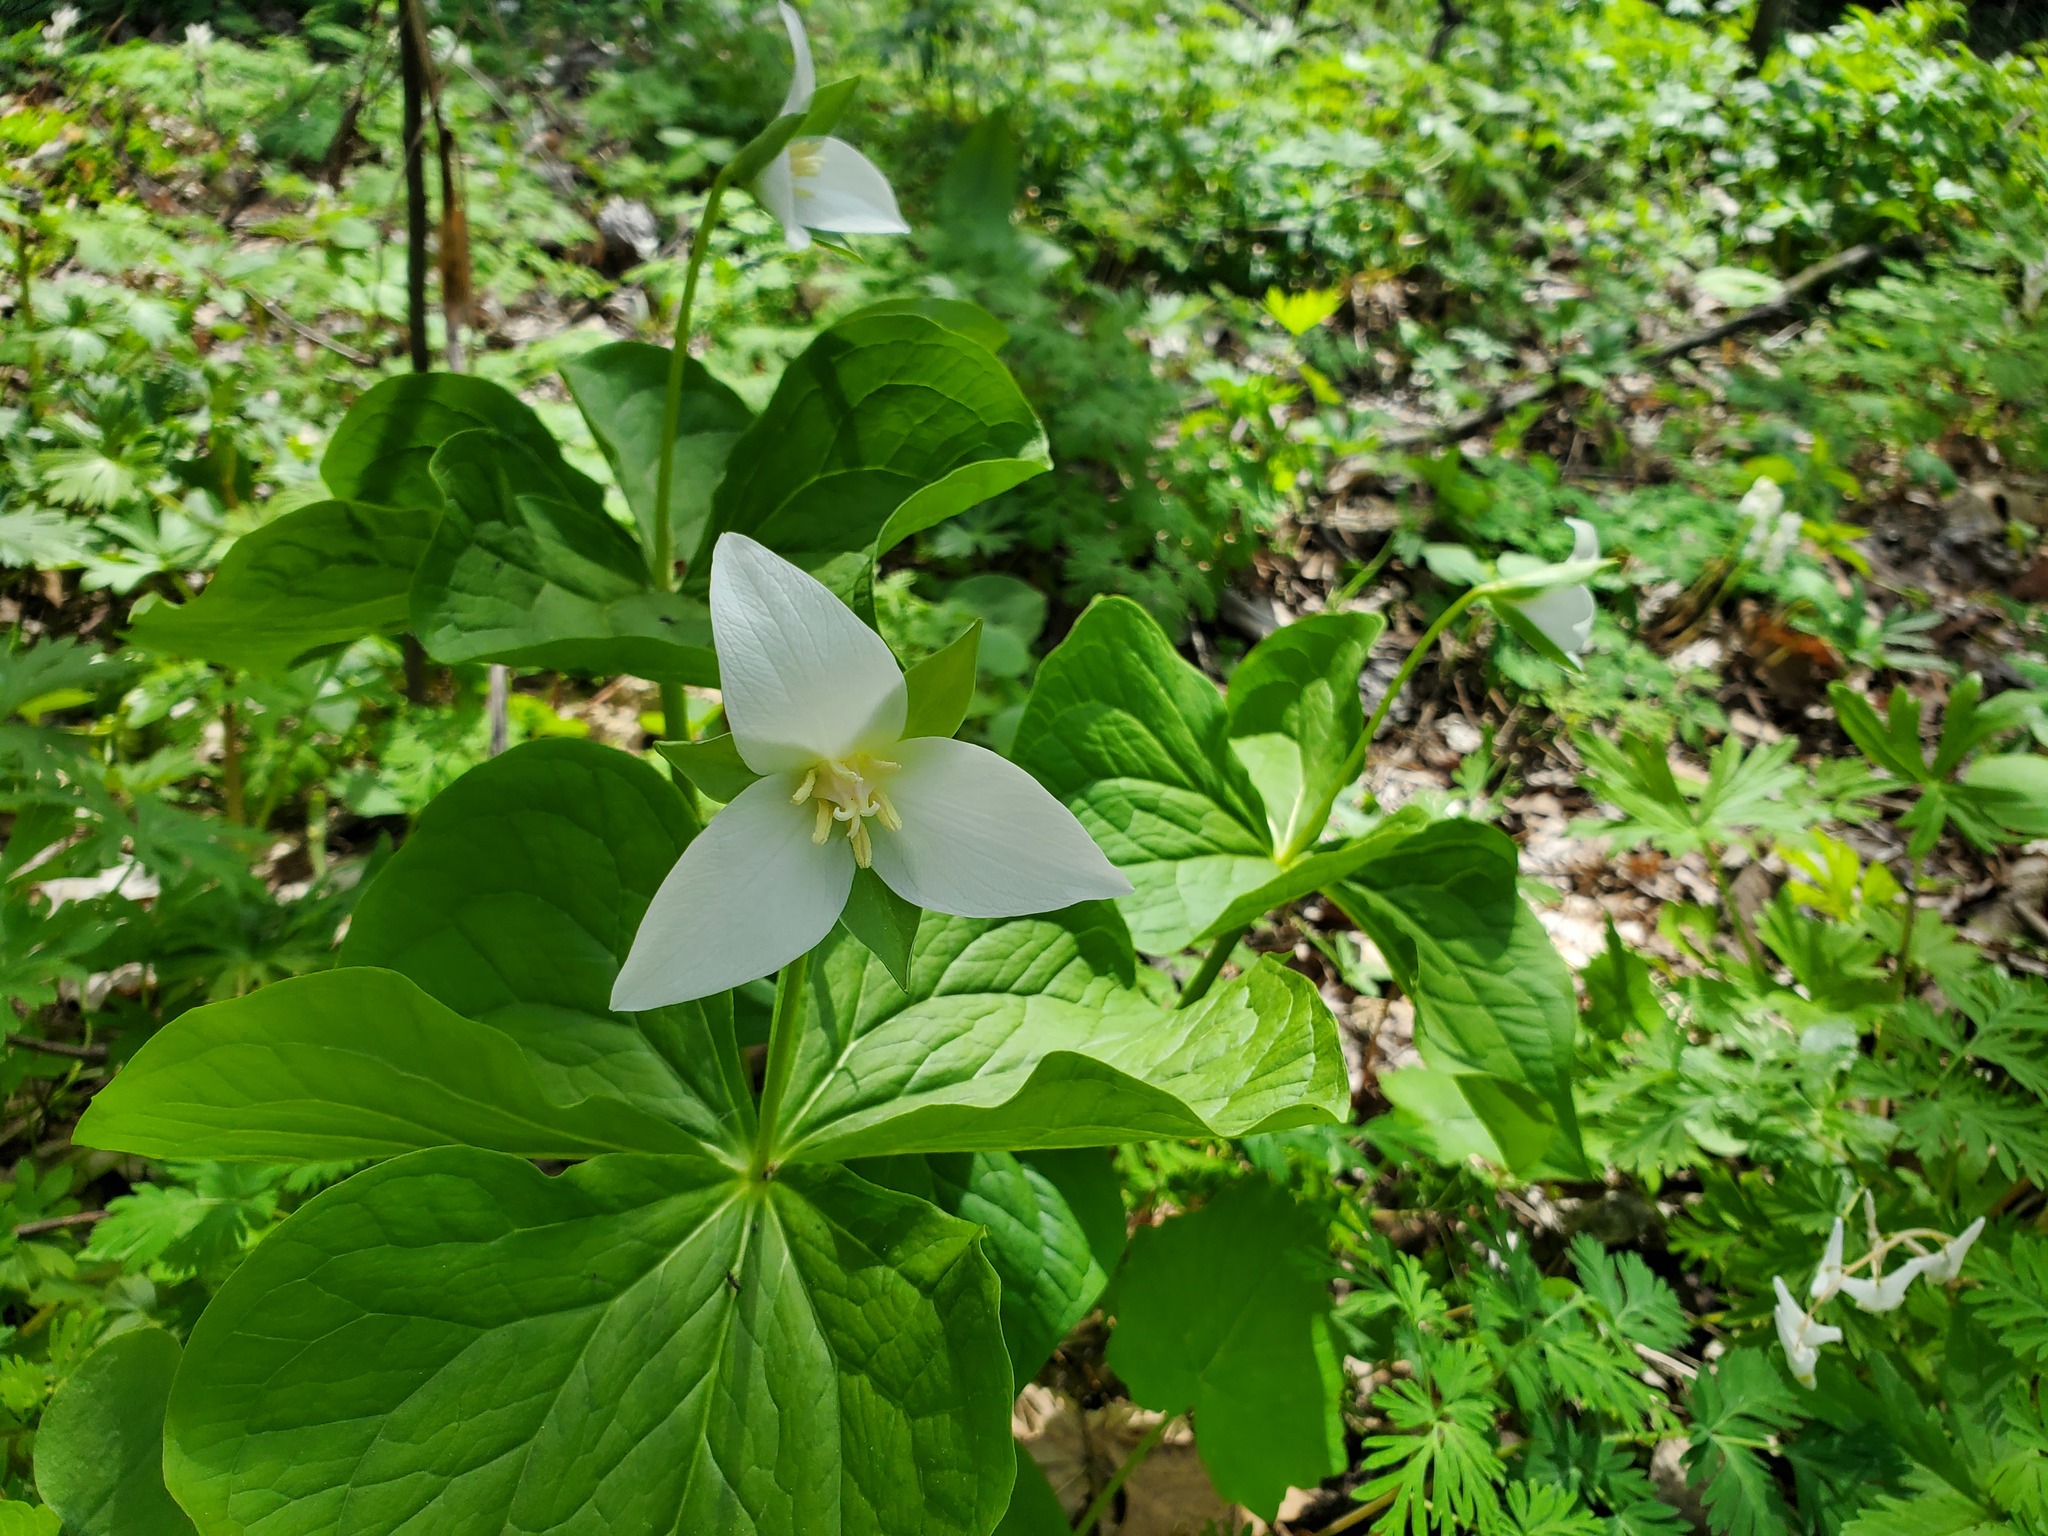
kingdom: Plantae
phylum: Tracheophyta
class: Liliopsida
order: Liliales
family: Melanthiaceae
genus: Trillium
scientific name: Trillium flexipes
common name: Drooping trillium
